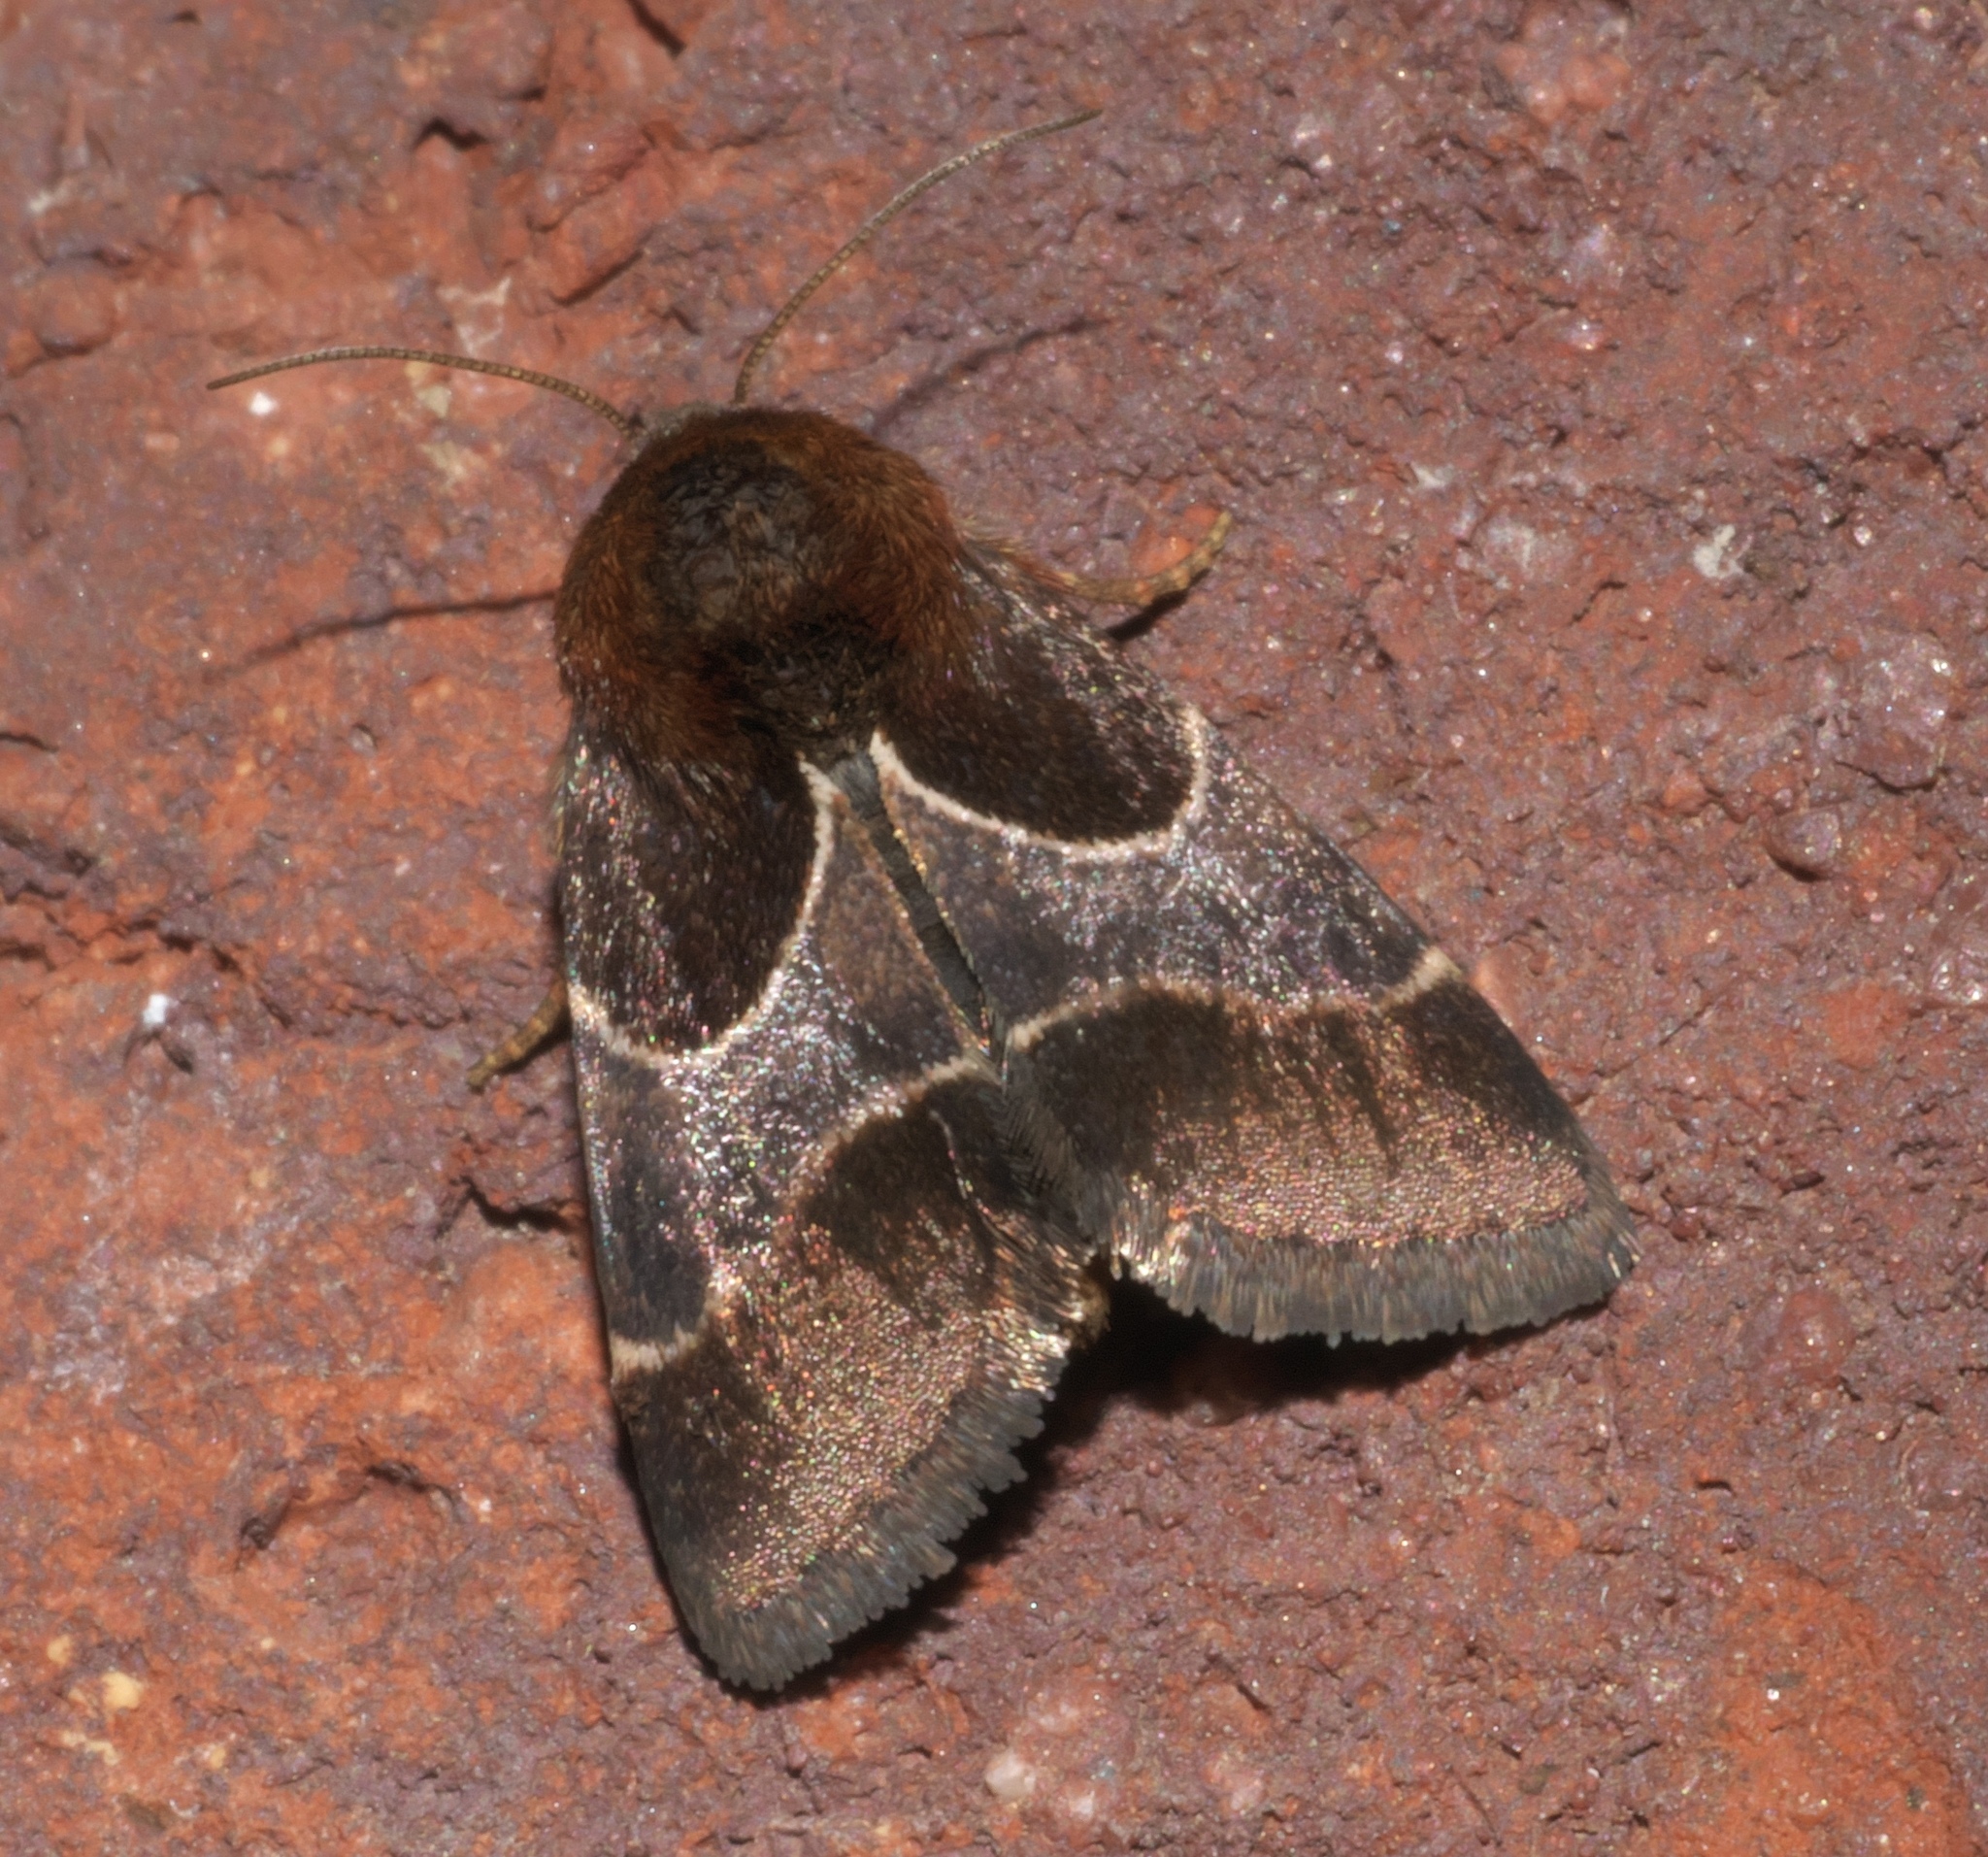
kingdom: Animalia
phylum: Arthropoda
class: Insecta
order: Lepidoptera
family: Noctuidae
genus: Schinia
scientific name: Schinia arcigera
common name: Arcigera flower moth
